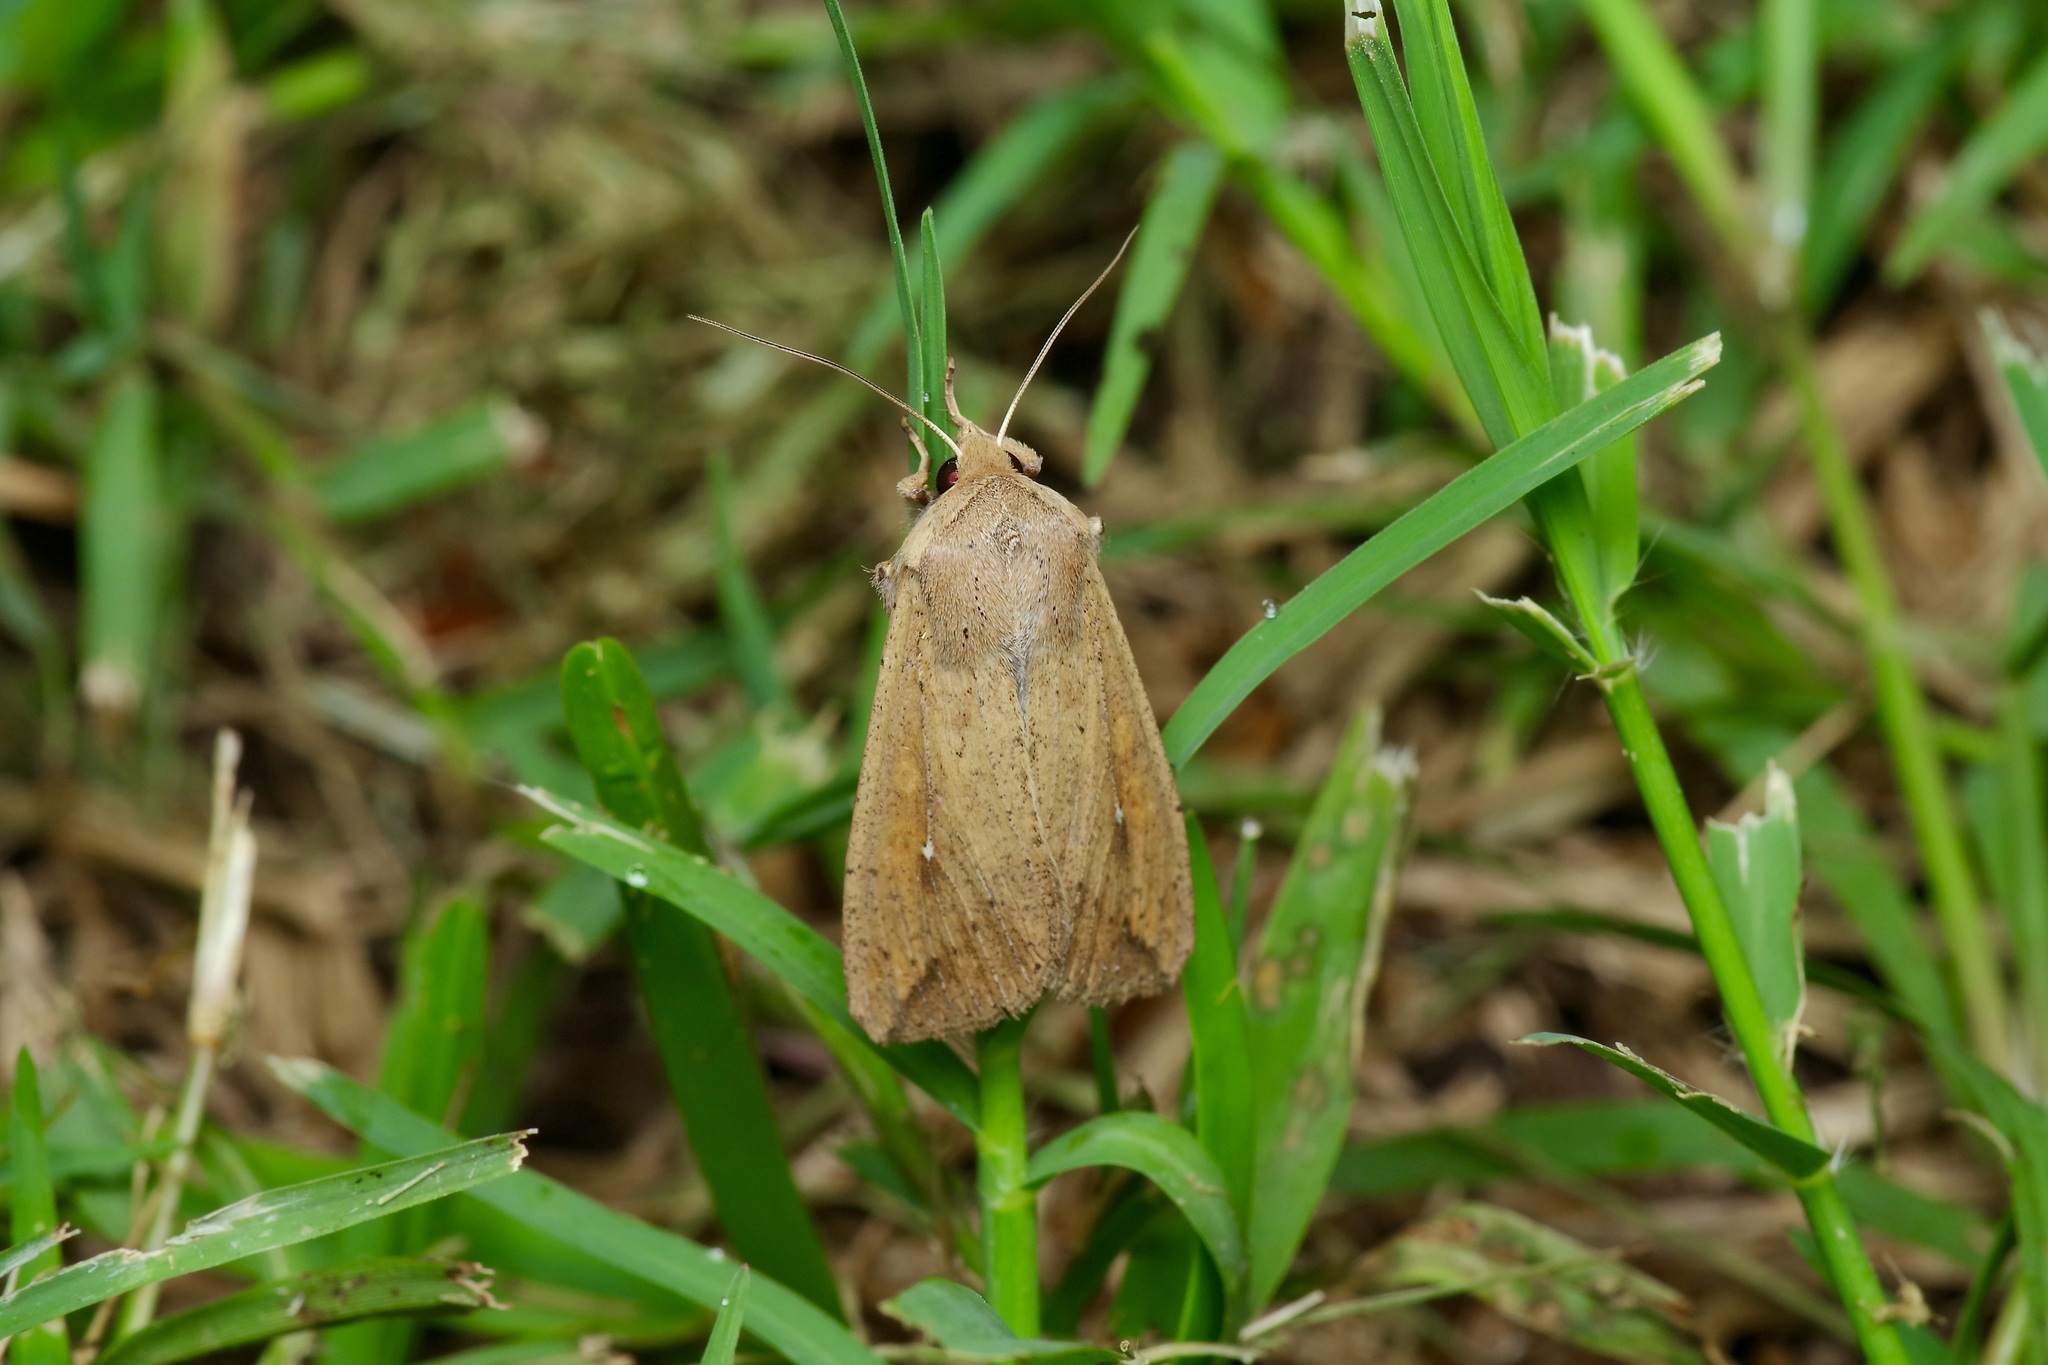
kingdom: Animalia
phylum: Arthropoda
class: Insecta
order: Lepidoptera
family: Noctuidae
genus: Mythimna
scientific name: Mythimna unipuncta
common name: White-speck
